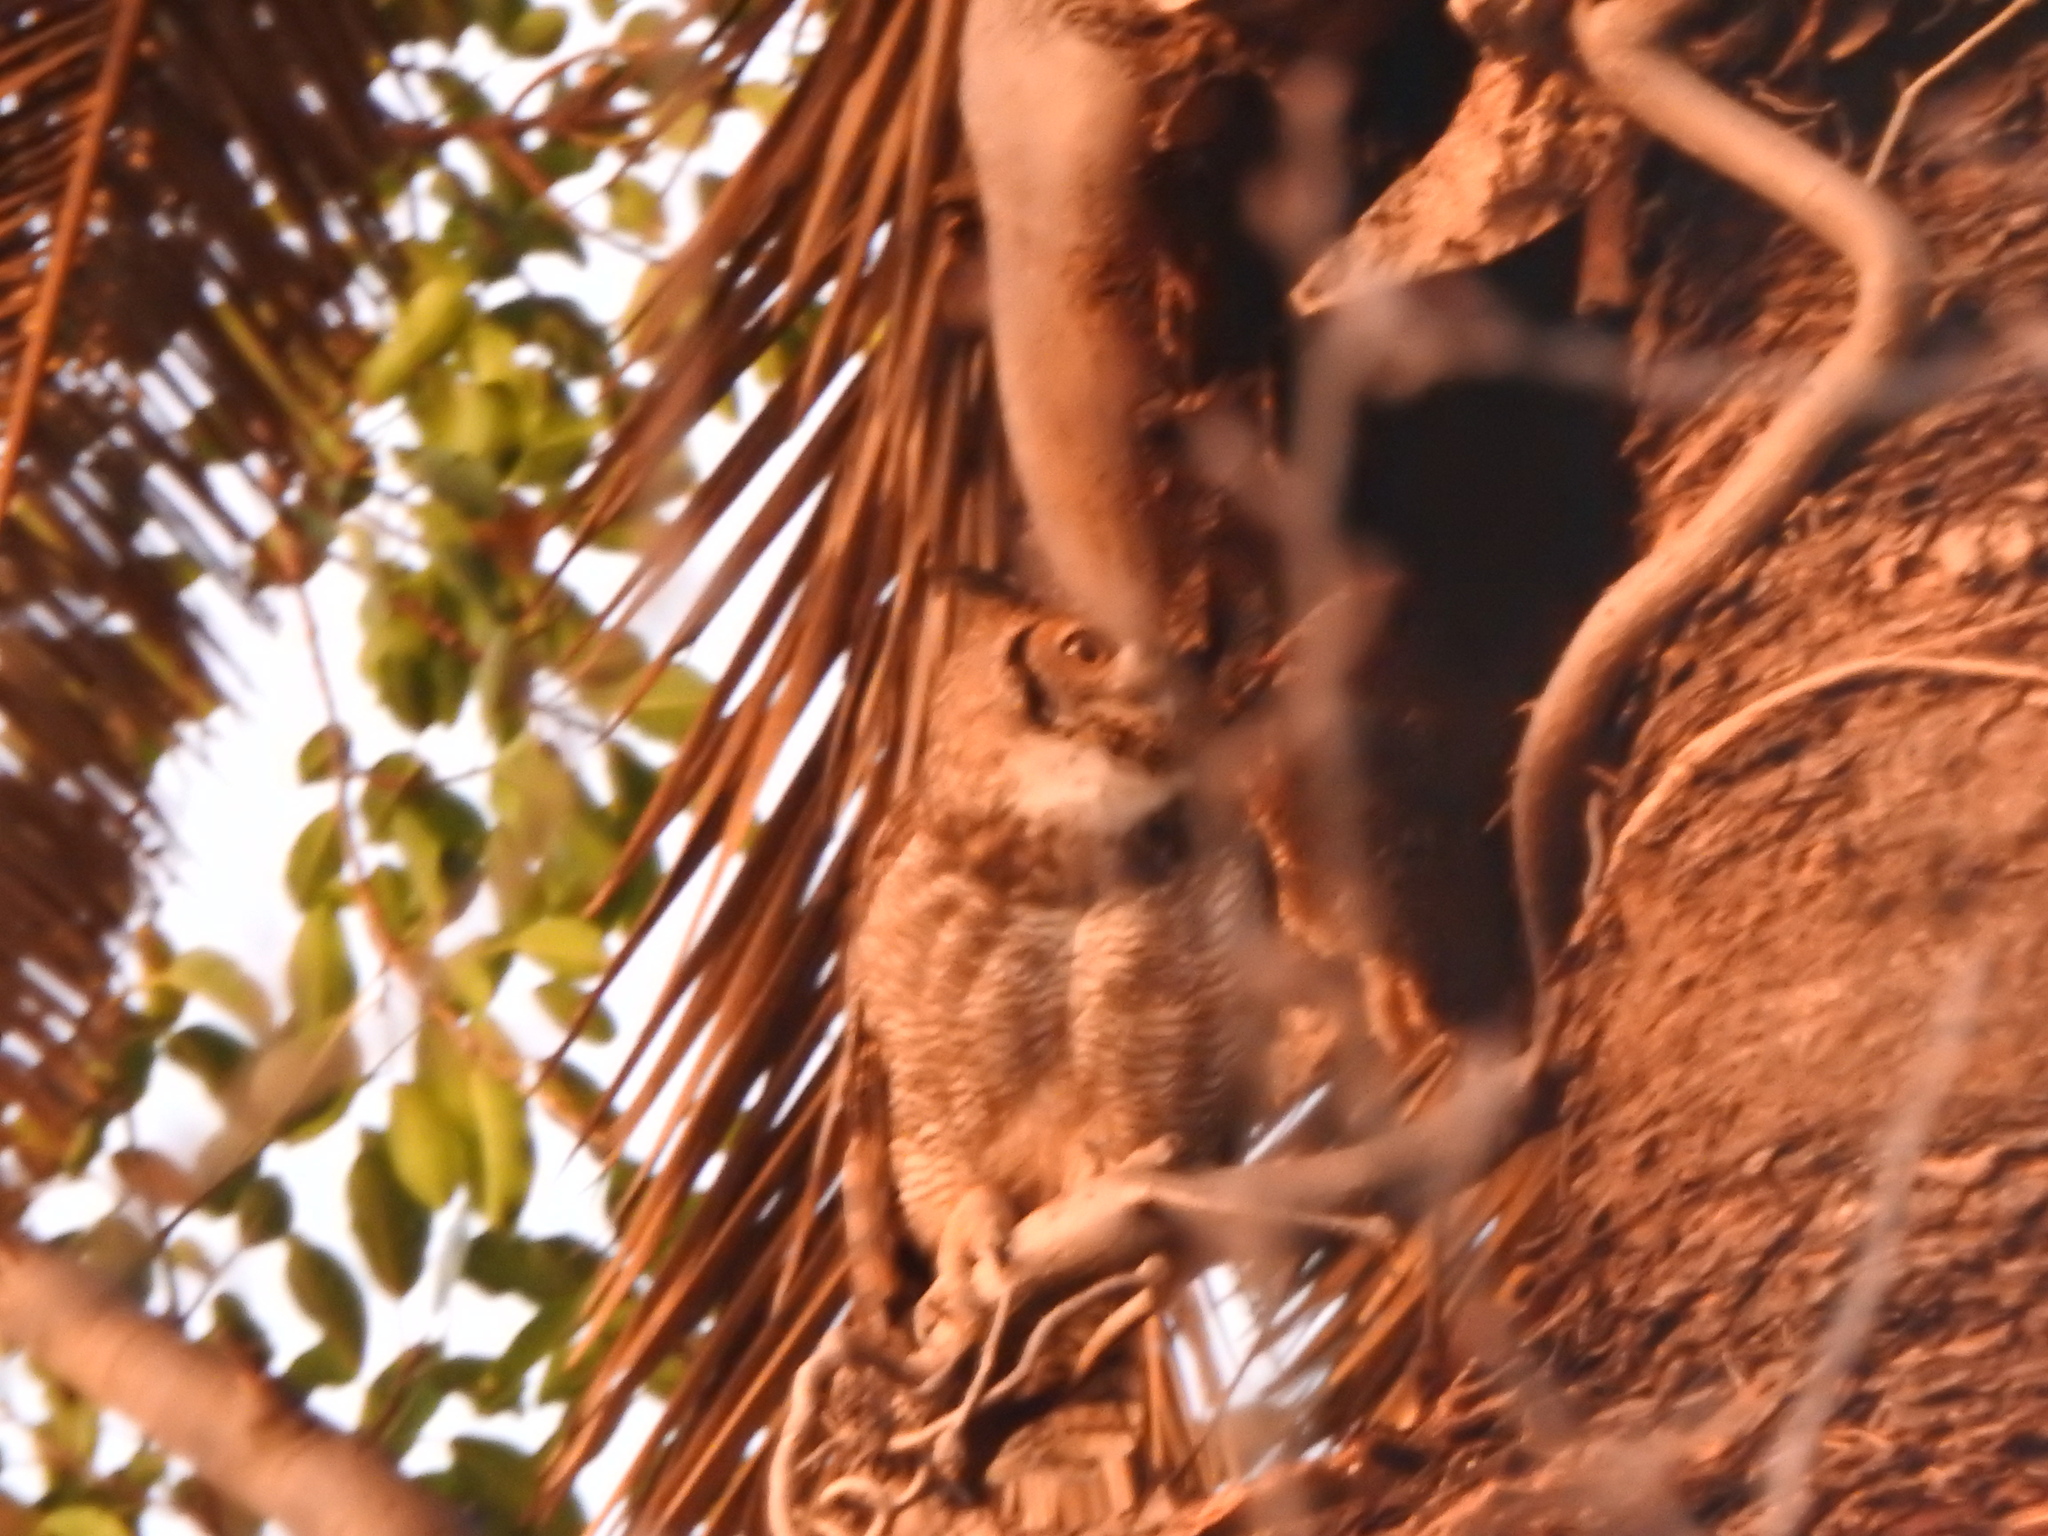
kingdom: Animalia
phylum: Chordata
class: Aves
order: Strigiformes
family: Strigidae
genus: Bubo
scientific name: Bubo virginianus
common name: Great horned owl
